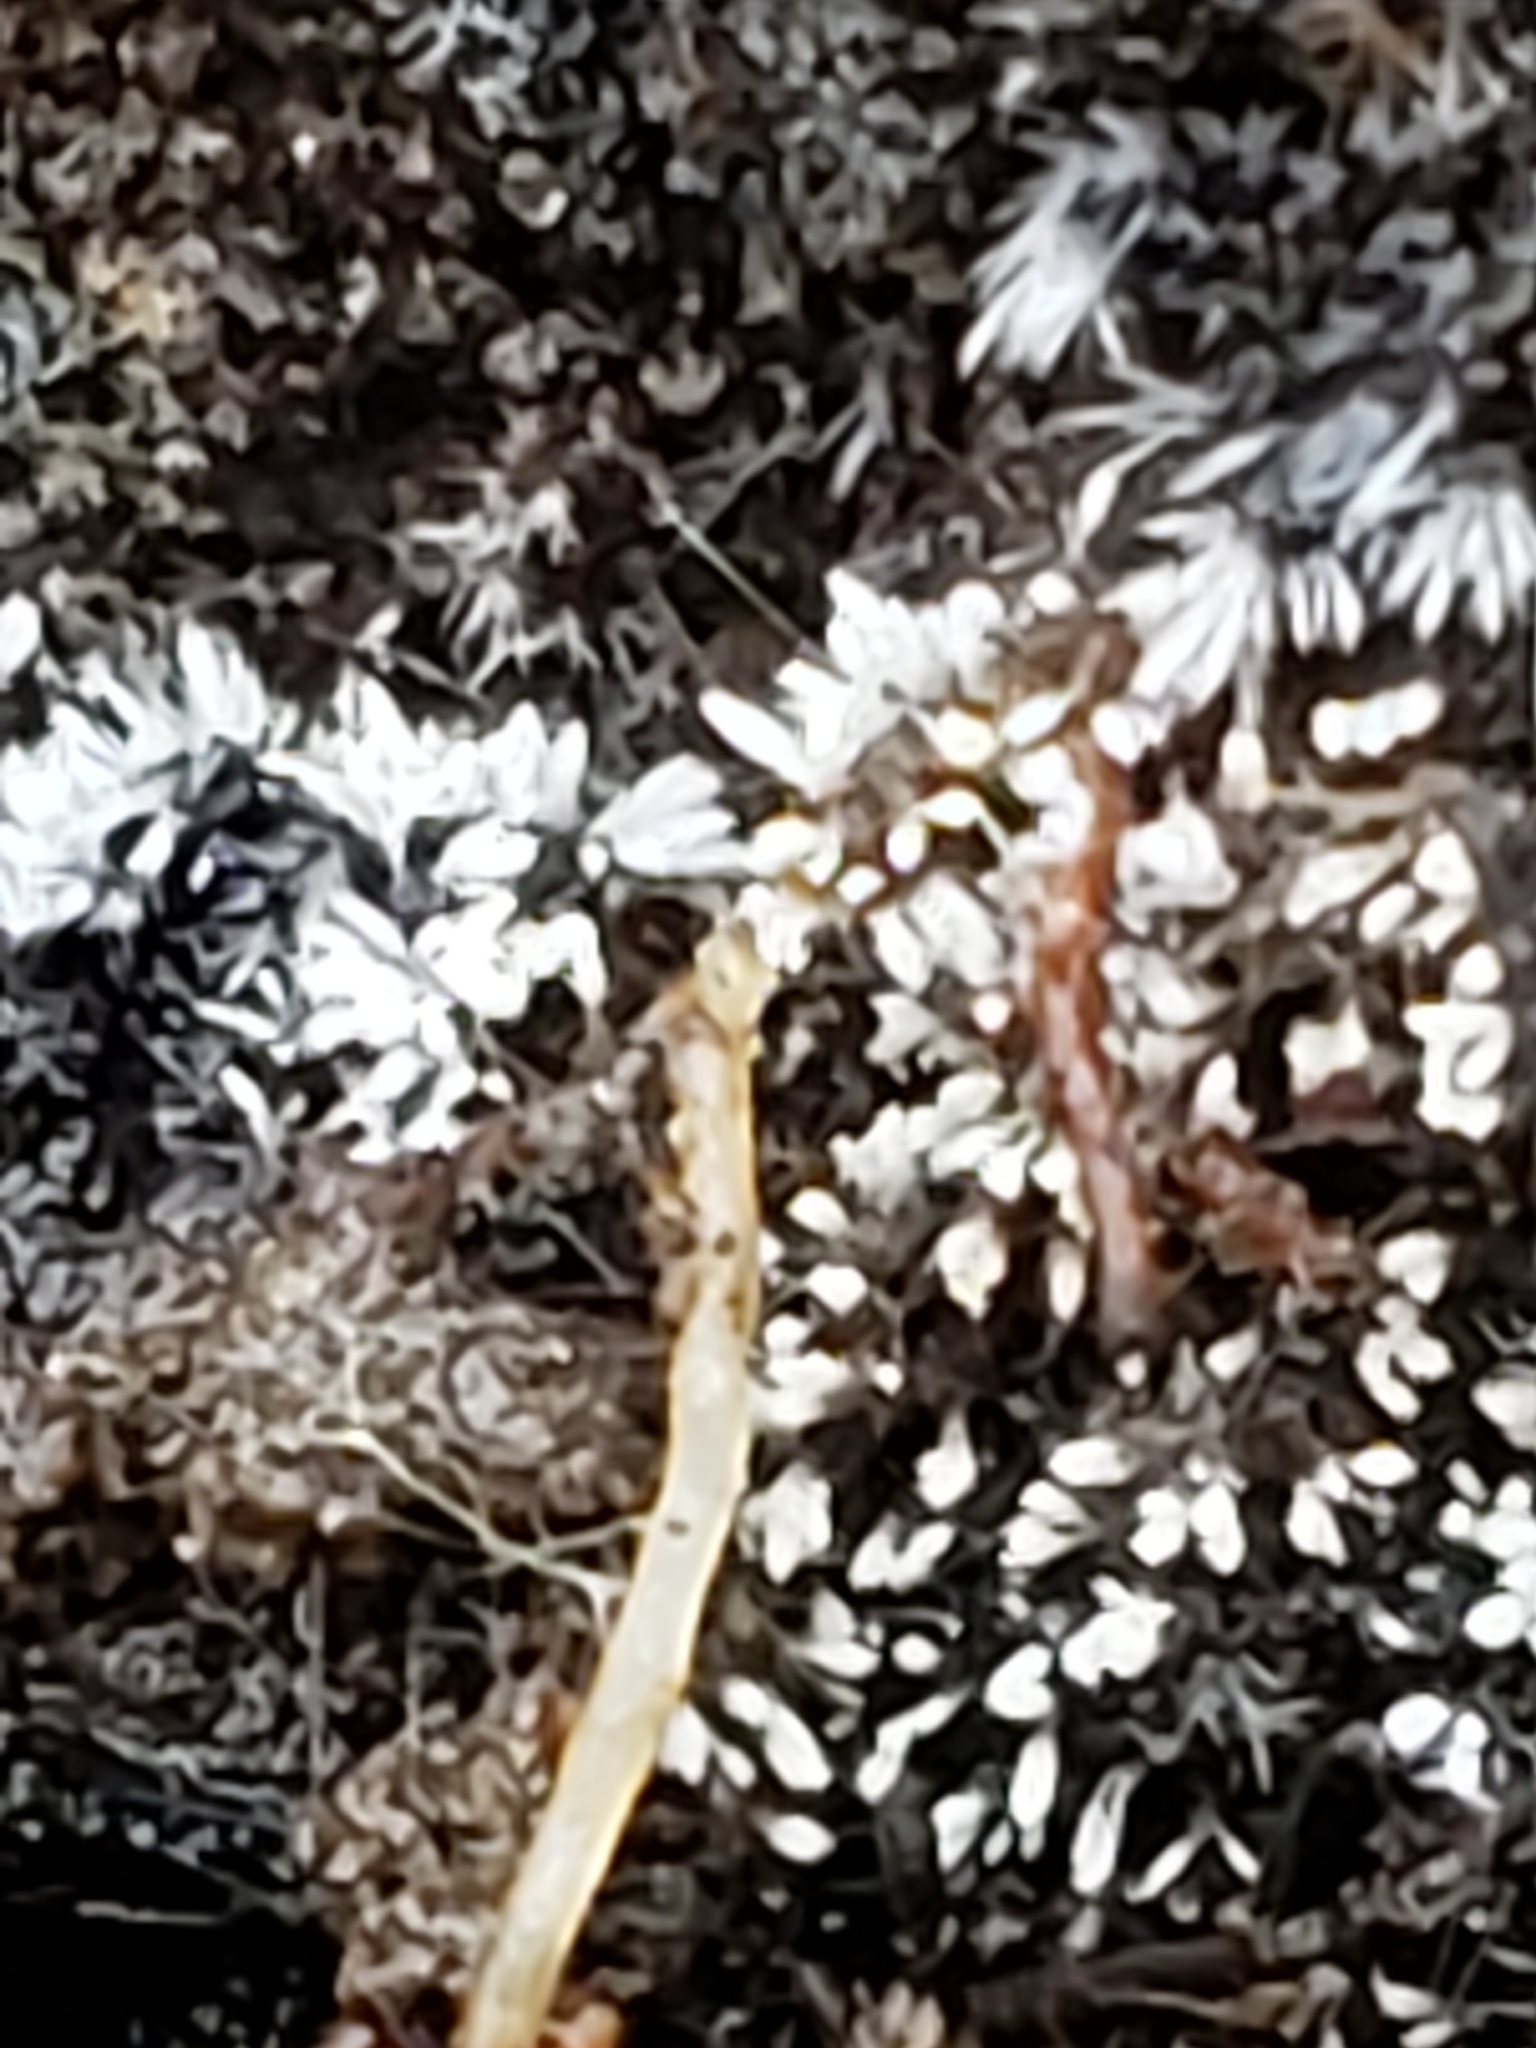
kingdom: Fungi
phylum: Basidiomycota
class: Agaricomycetes
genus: Riessia
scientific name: Riessia semiophora
